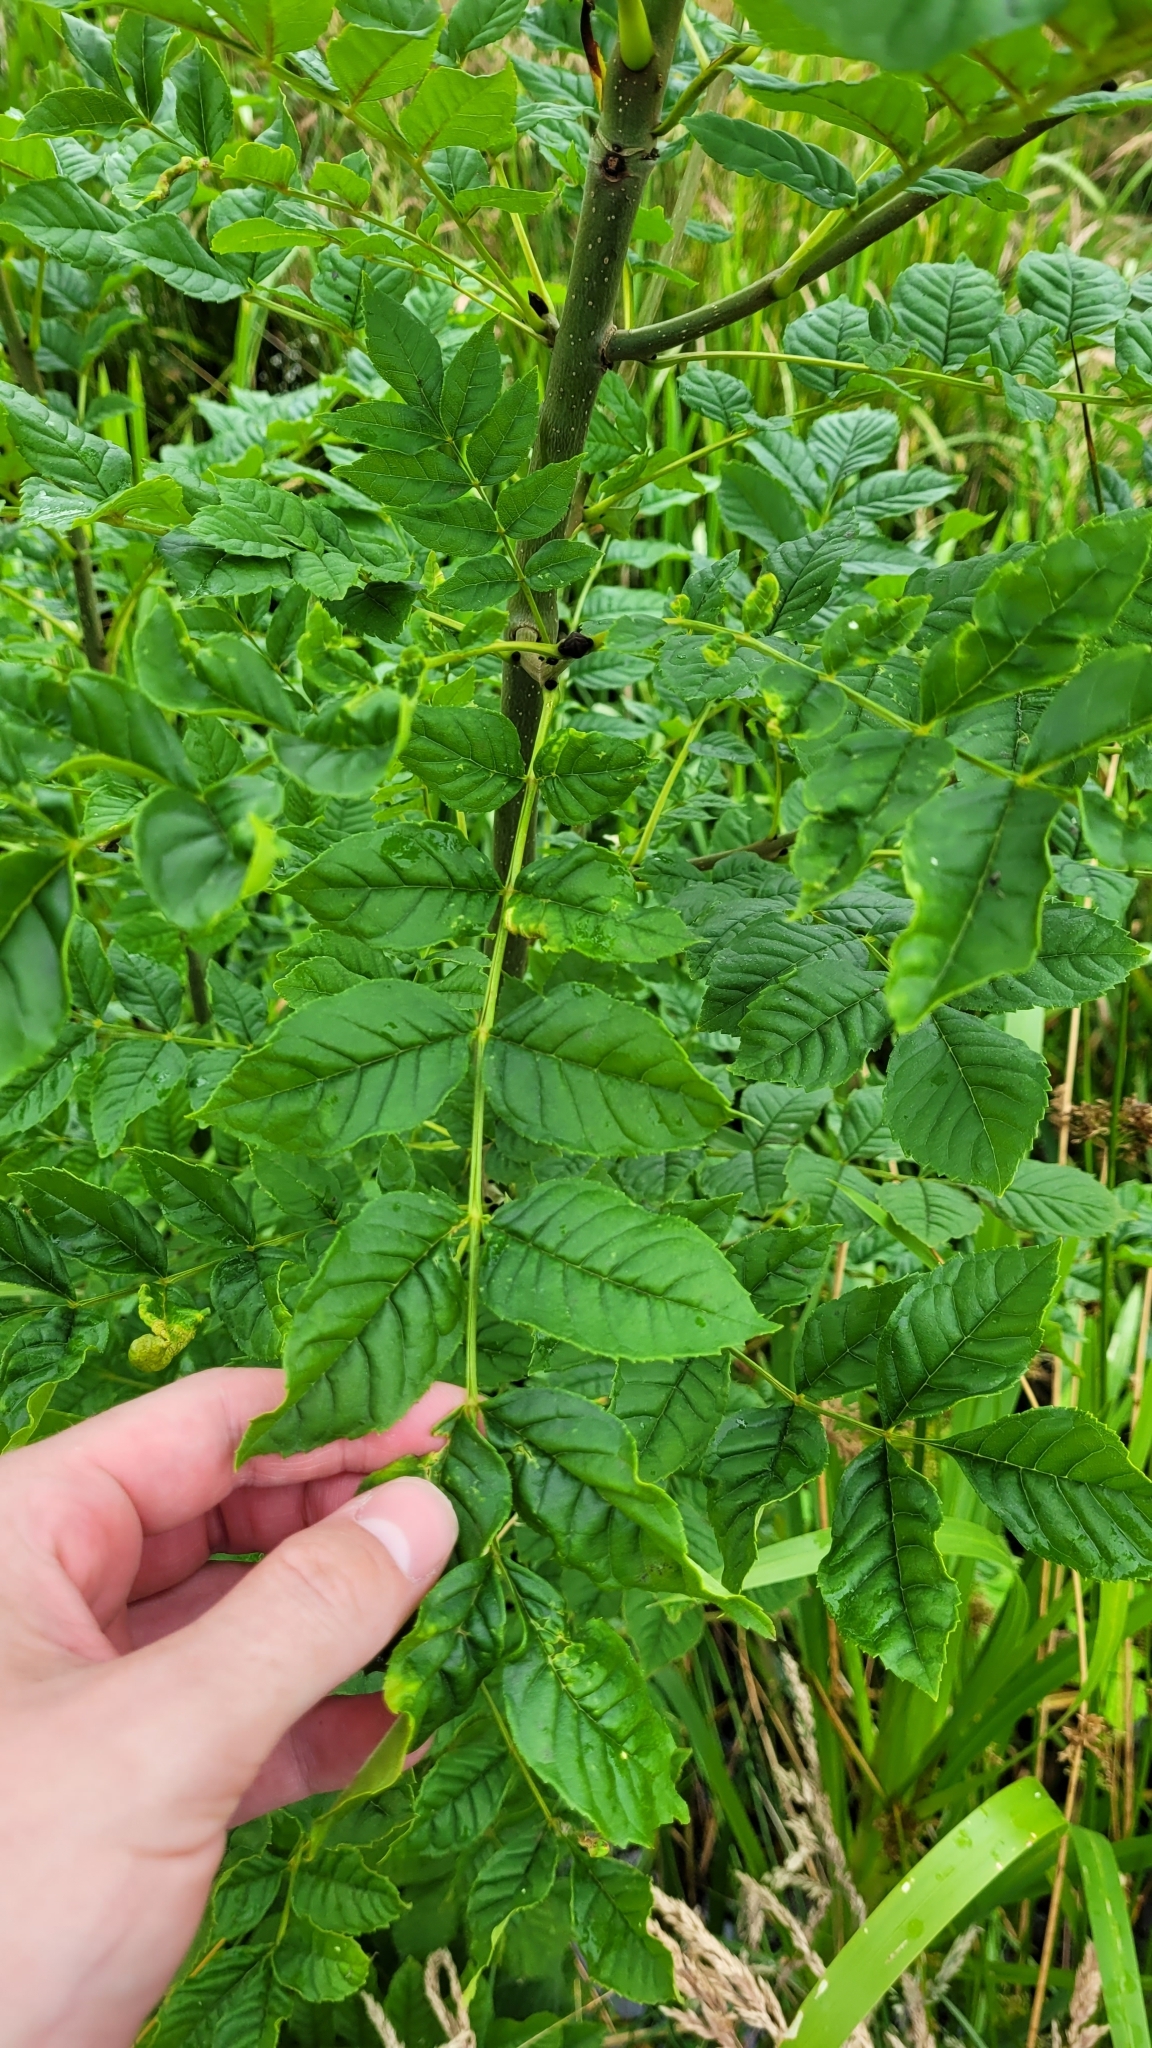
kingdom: Plantae
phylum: Tracheophyta
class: Magnoliopsida
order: Lamiales
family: Oleaceae
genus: Fraxinus
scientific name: Fraxinus excelsior
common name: European ash
